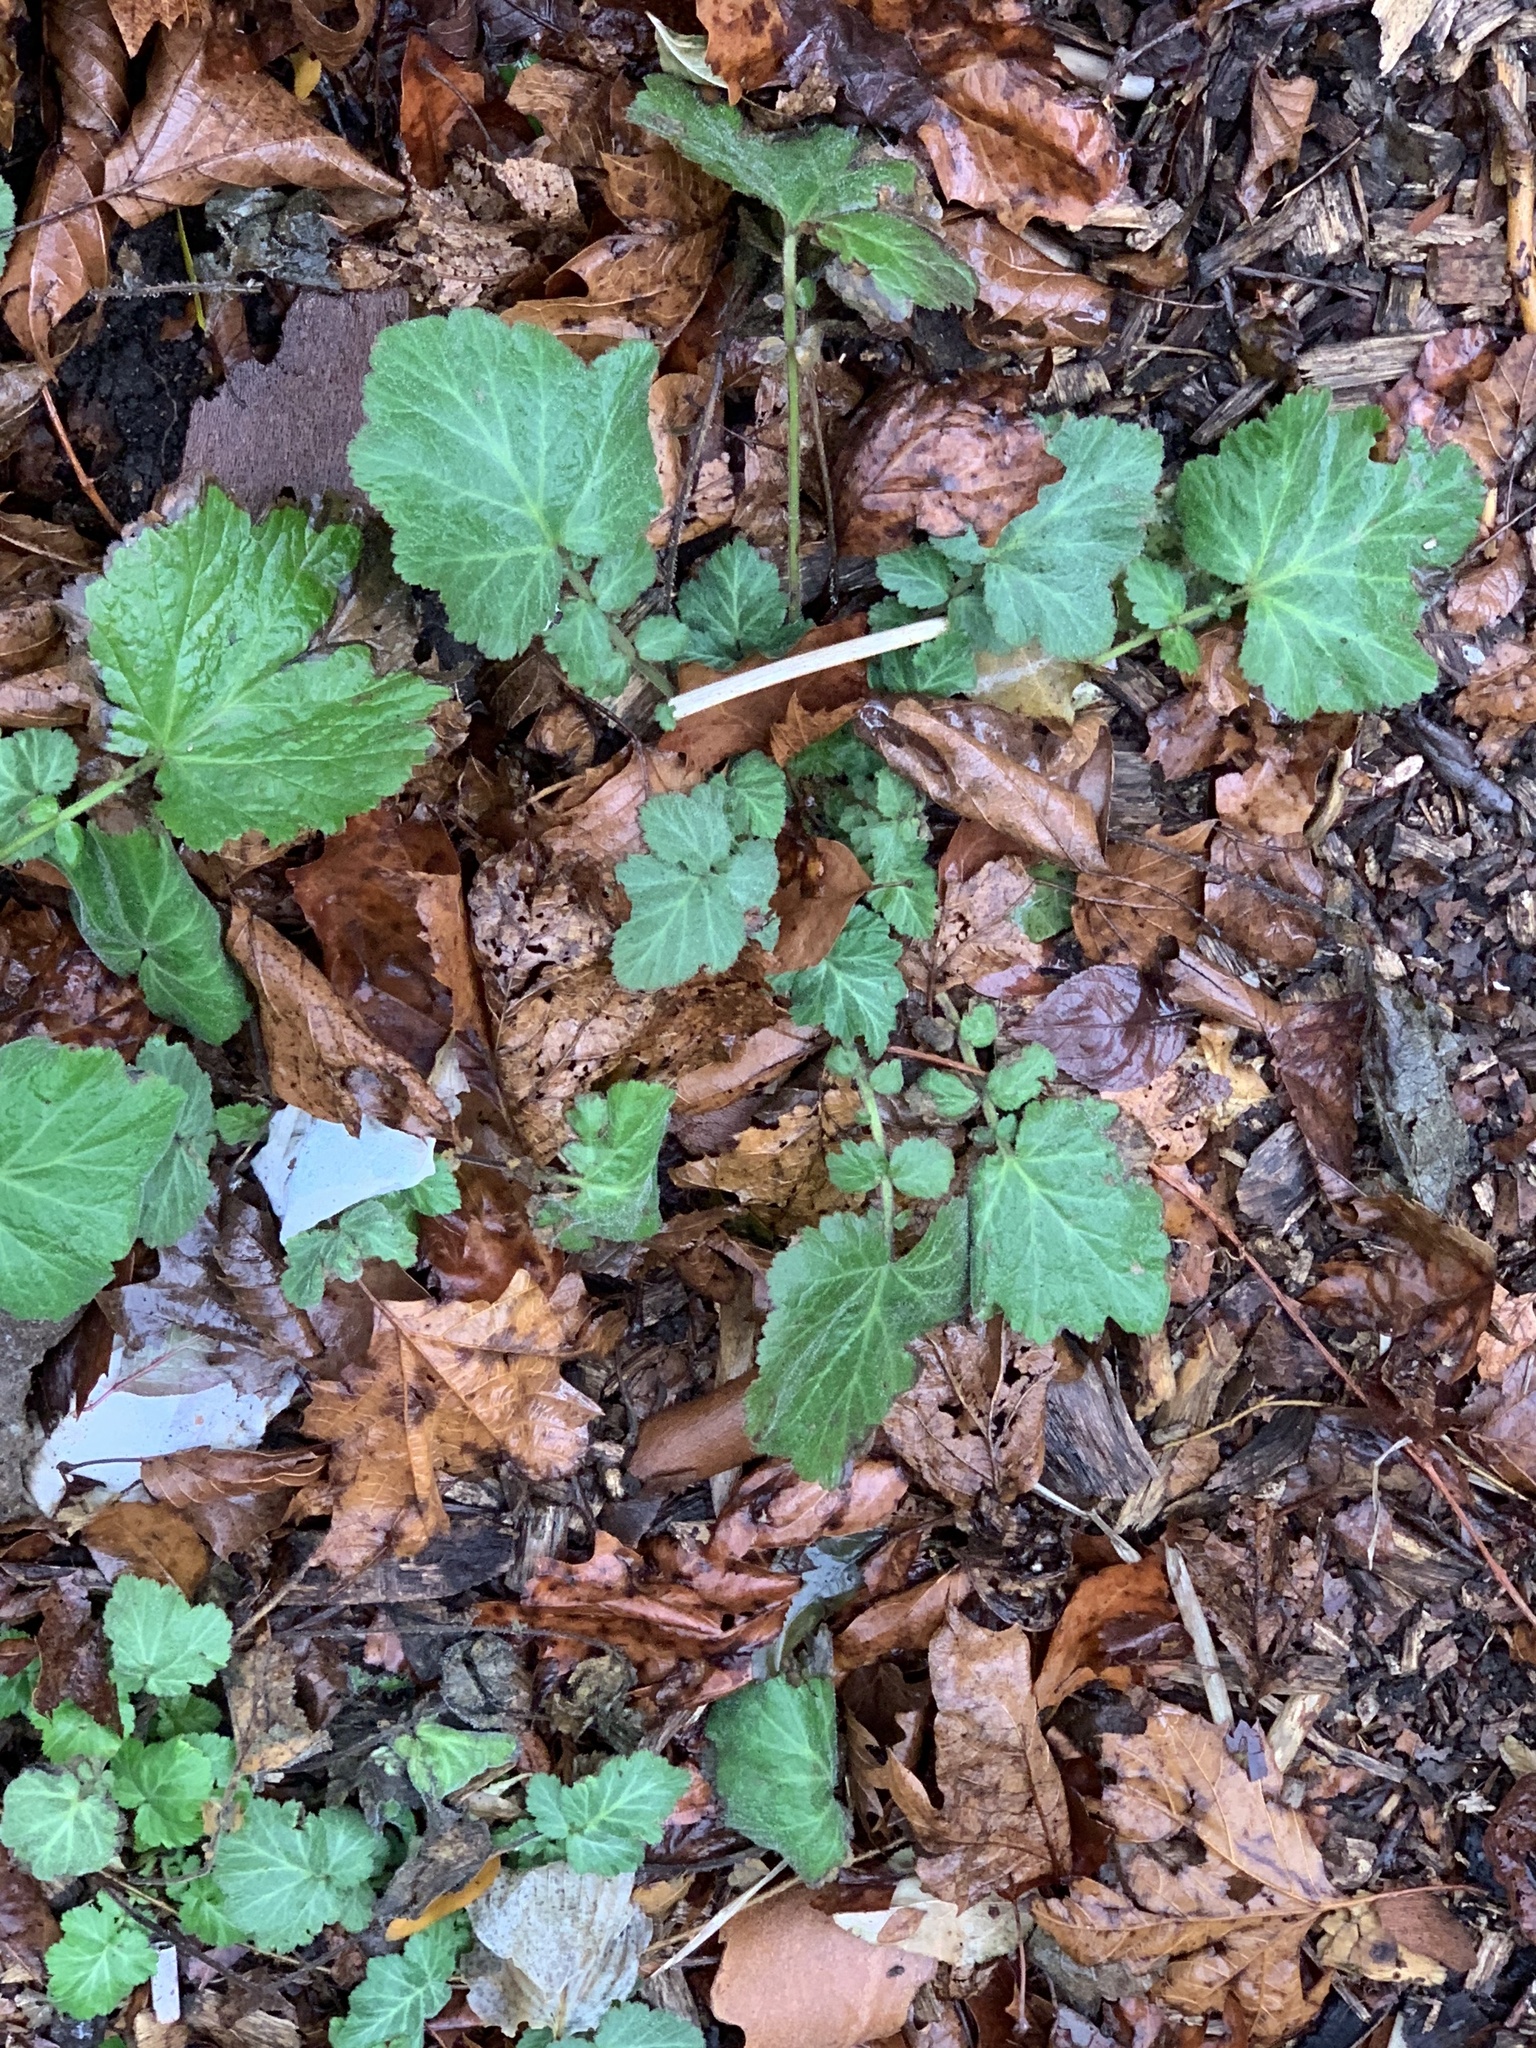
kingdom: Plantae
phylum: Tracheophyta
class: Magnoliopsida
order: Rosales
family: Rosaceae
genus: Geum
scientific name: Geum canadense
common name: White avens
